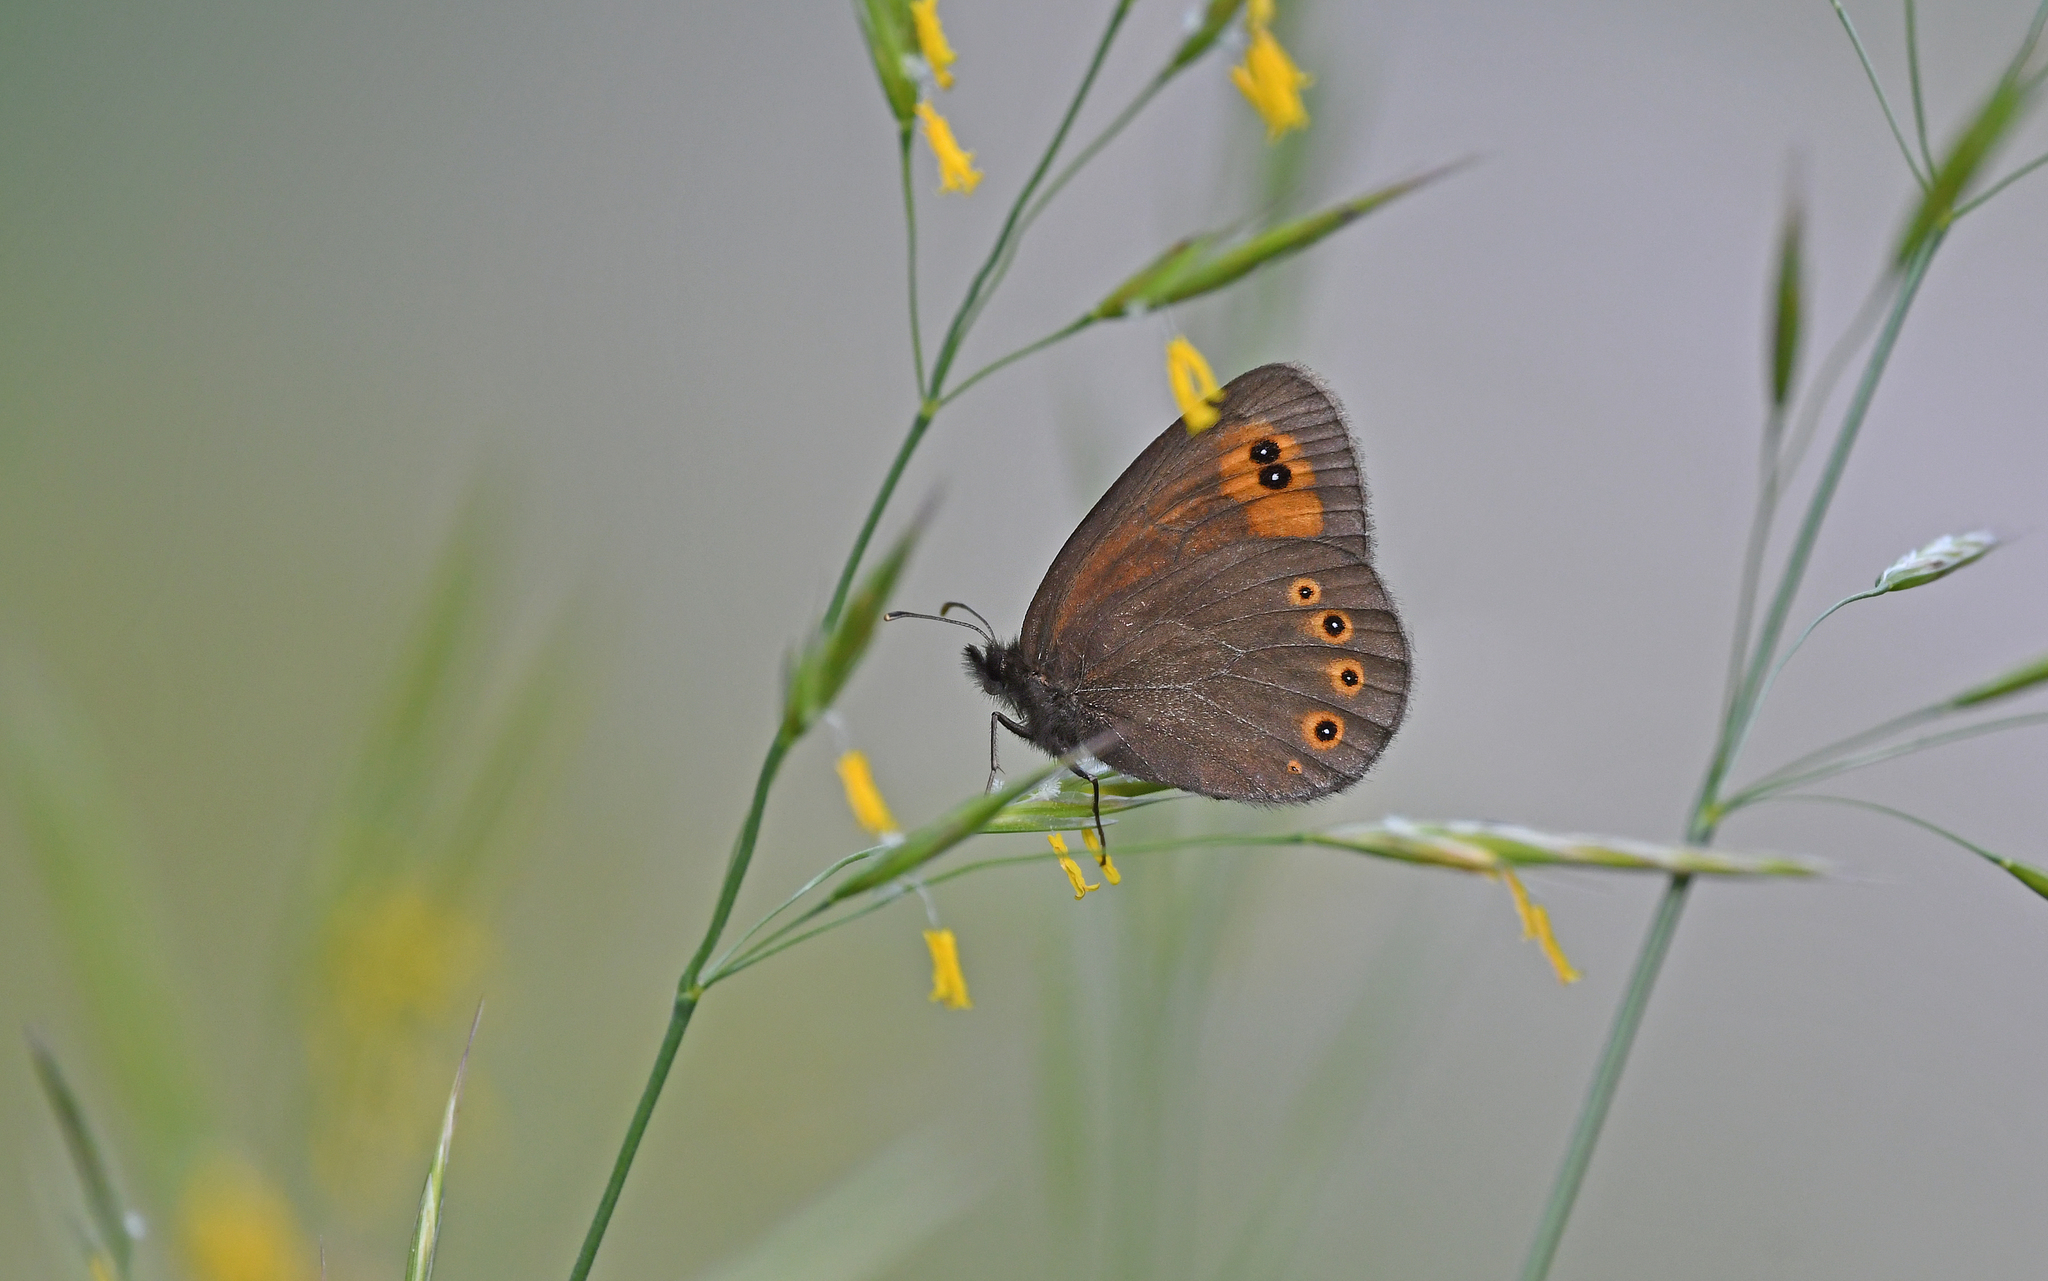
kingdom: Animalia
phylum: Arthropoda
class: Insecta
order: Lepidoptera
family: Nymphalidae
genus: Erebia
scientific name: Erebia medusa
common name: Woodland ringlet
